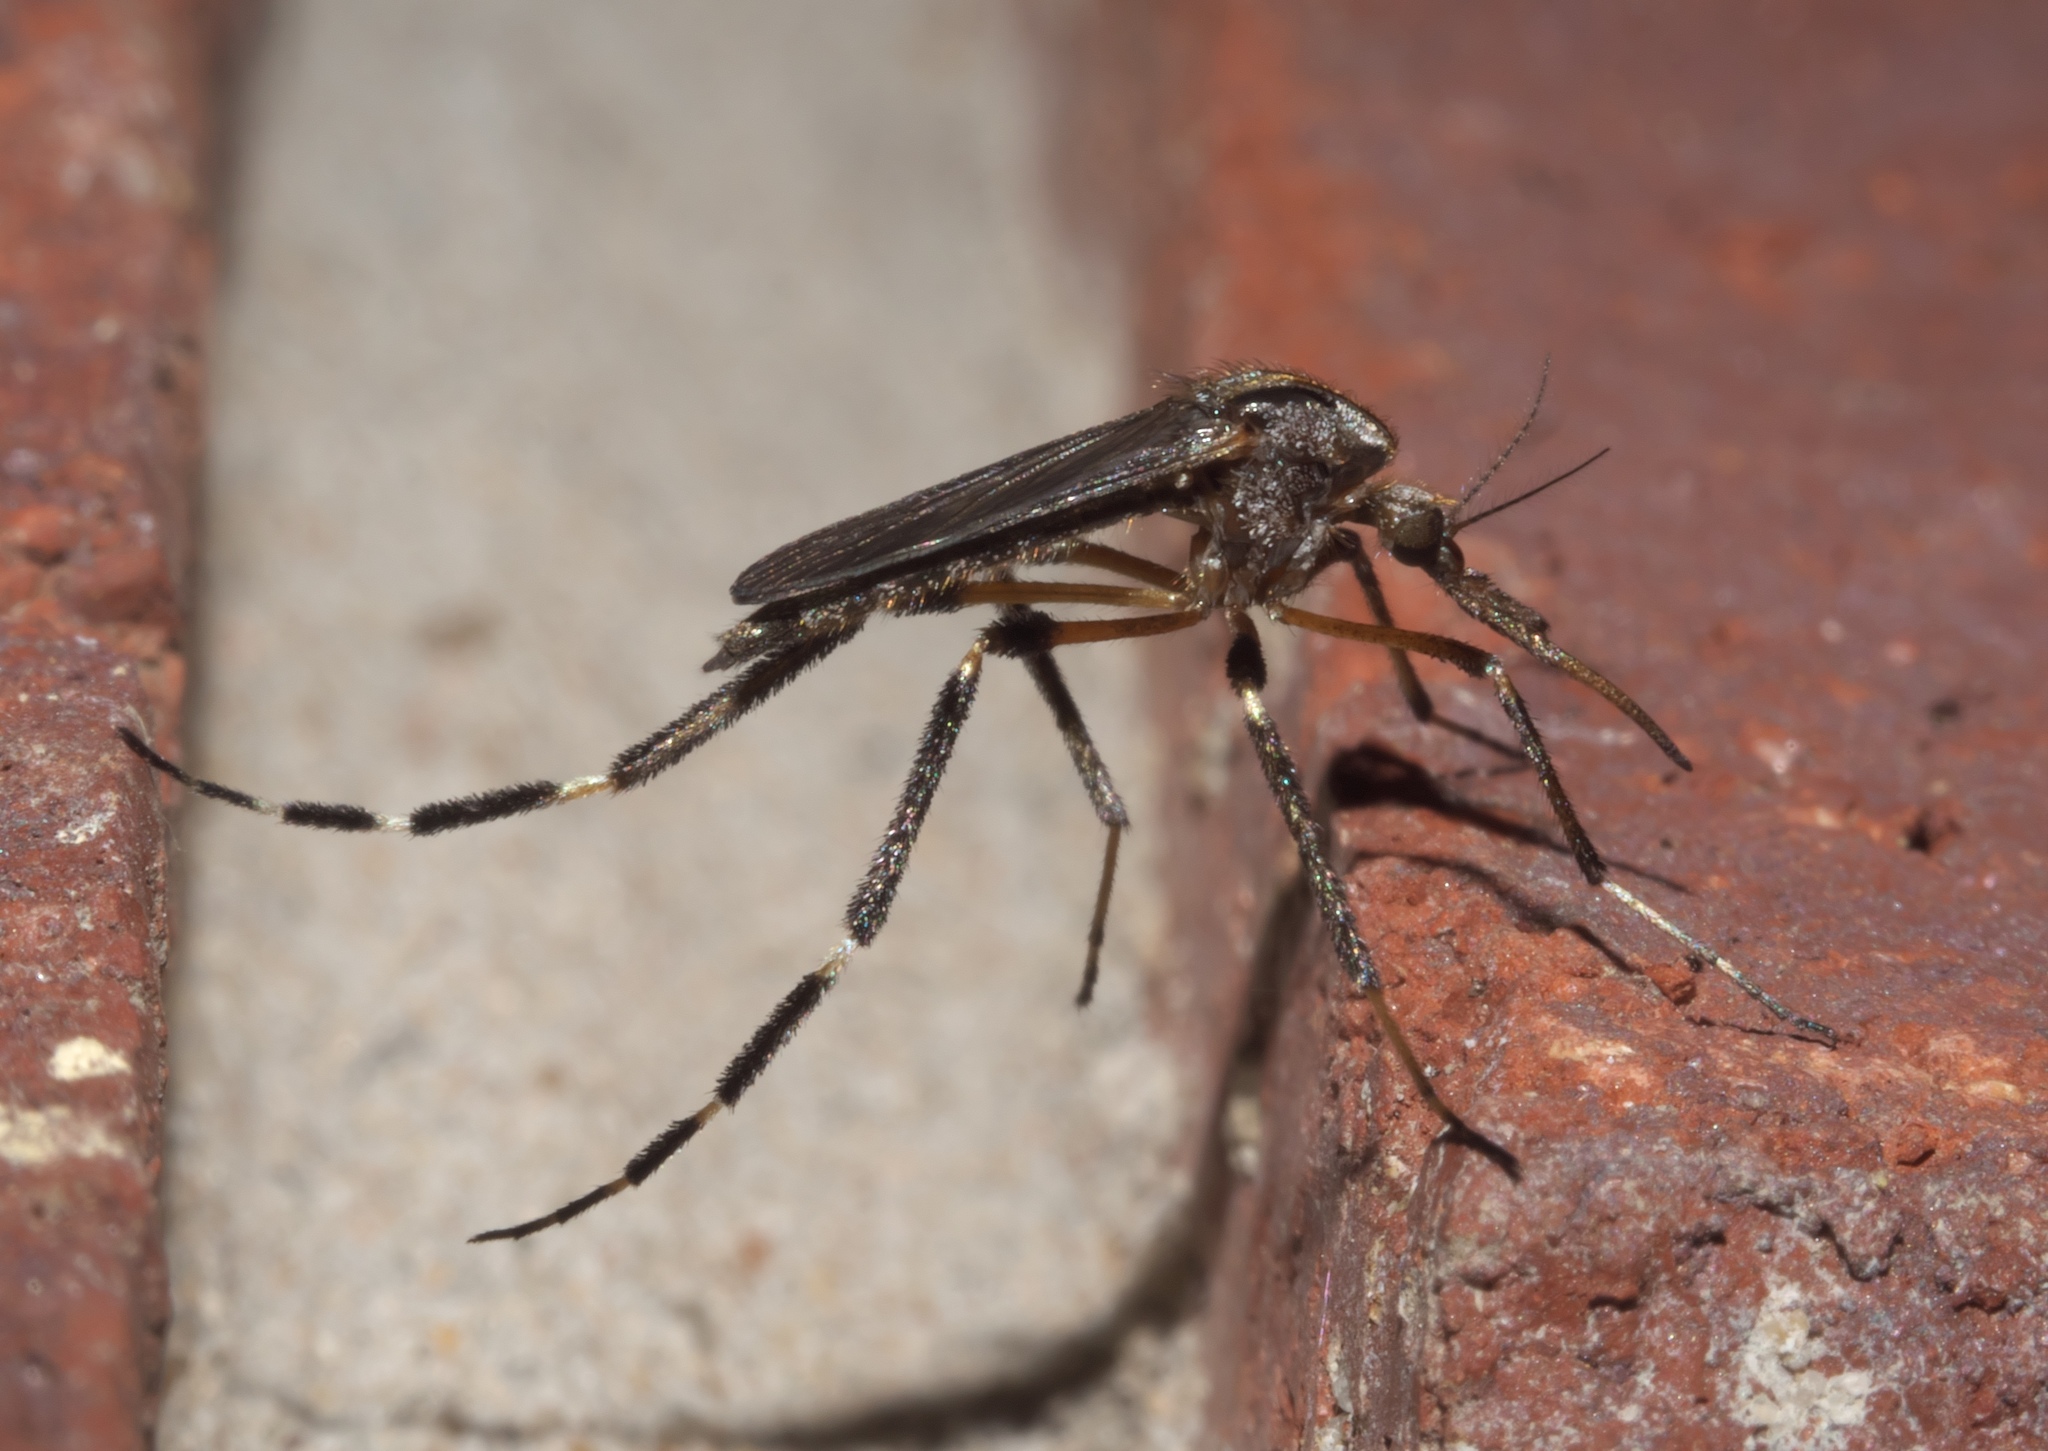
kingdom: Animalia
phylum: Arthropoda
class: Insecta
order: Diptera
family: Culicidae
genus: Psorophora
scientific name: Psorophora ciliata
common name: Gallinipper
